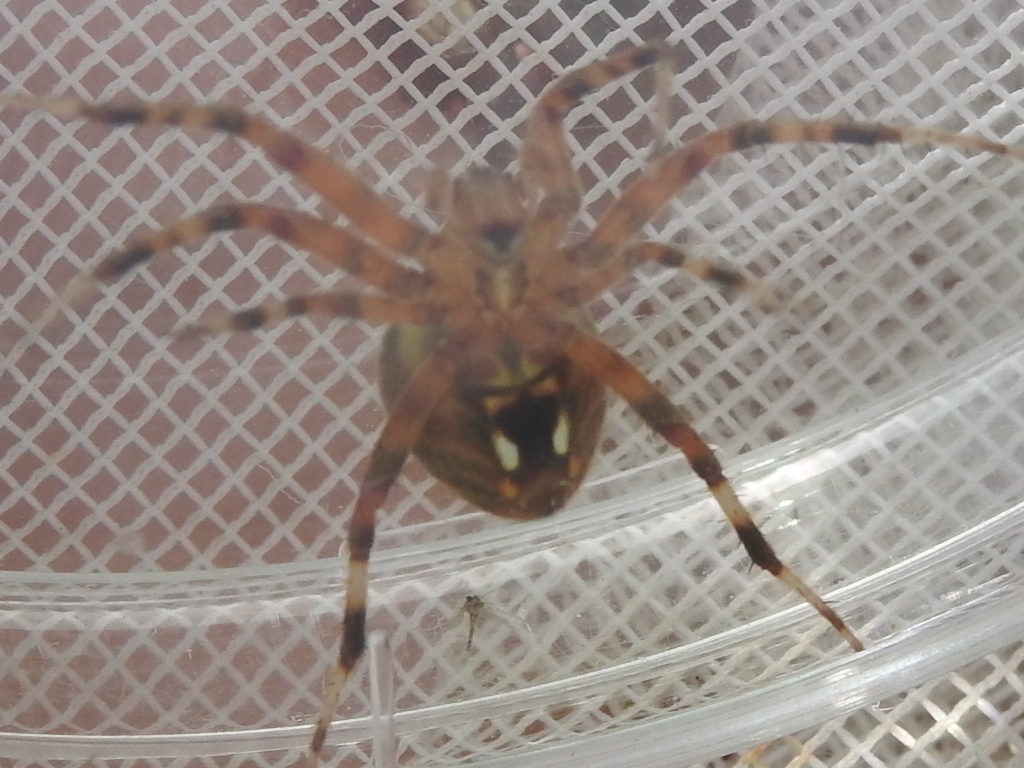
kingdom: Animalia
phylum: Arthropoda
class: Arachnida
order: Araneae
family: Araneidae
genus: Neoscona
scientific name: Neoscona crucifera
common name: Spotted orbweaver
